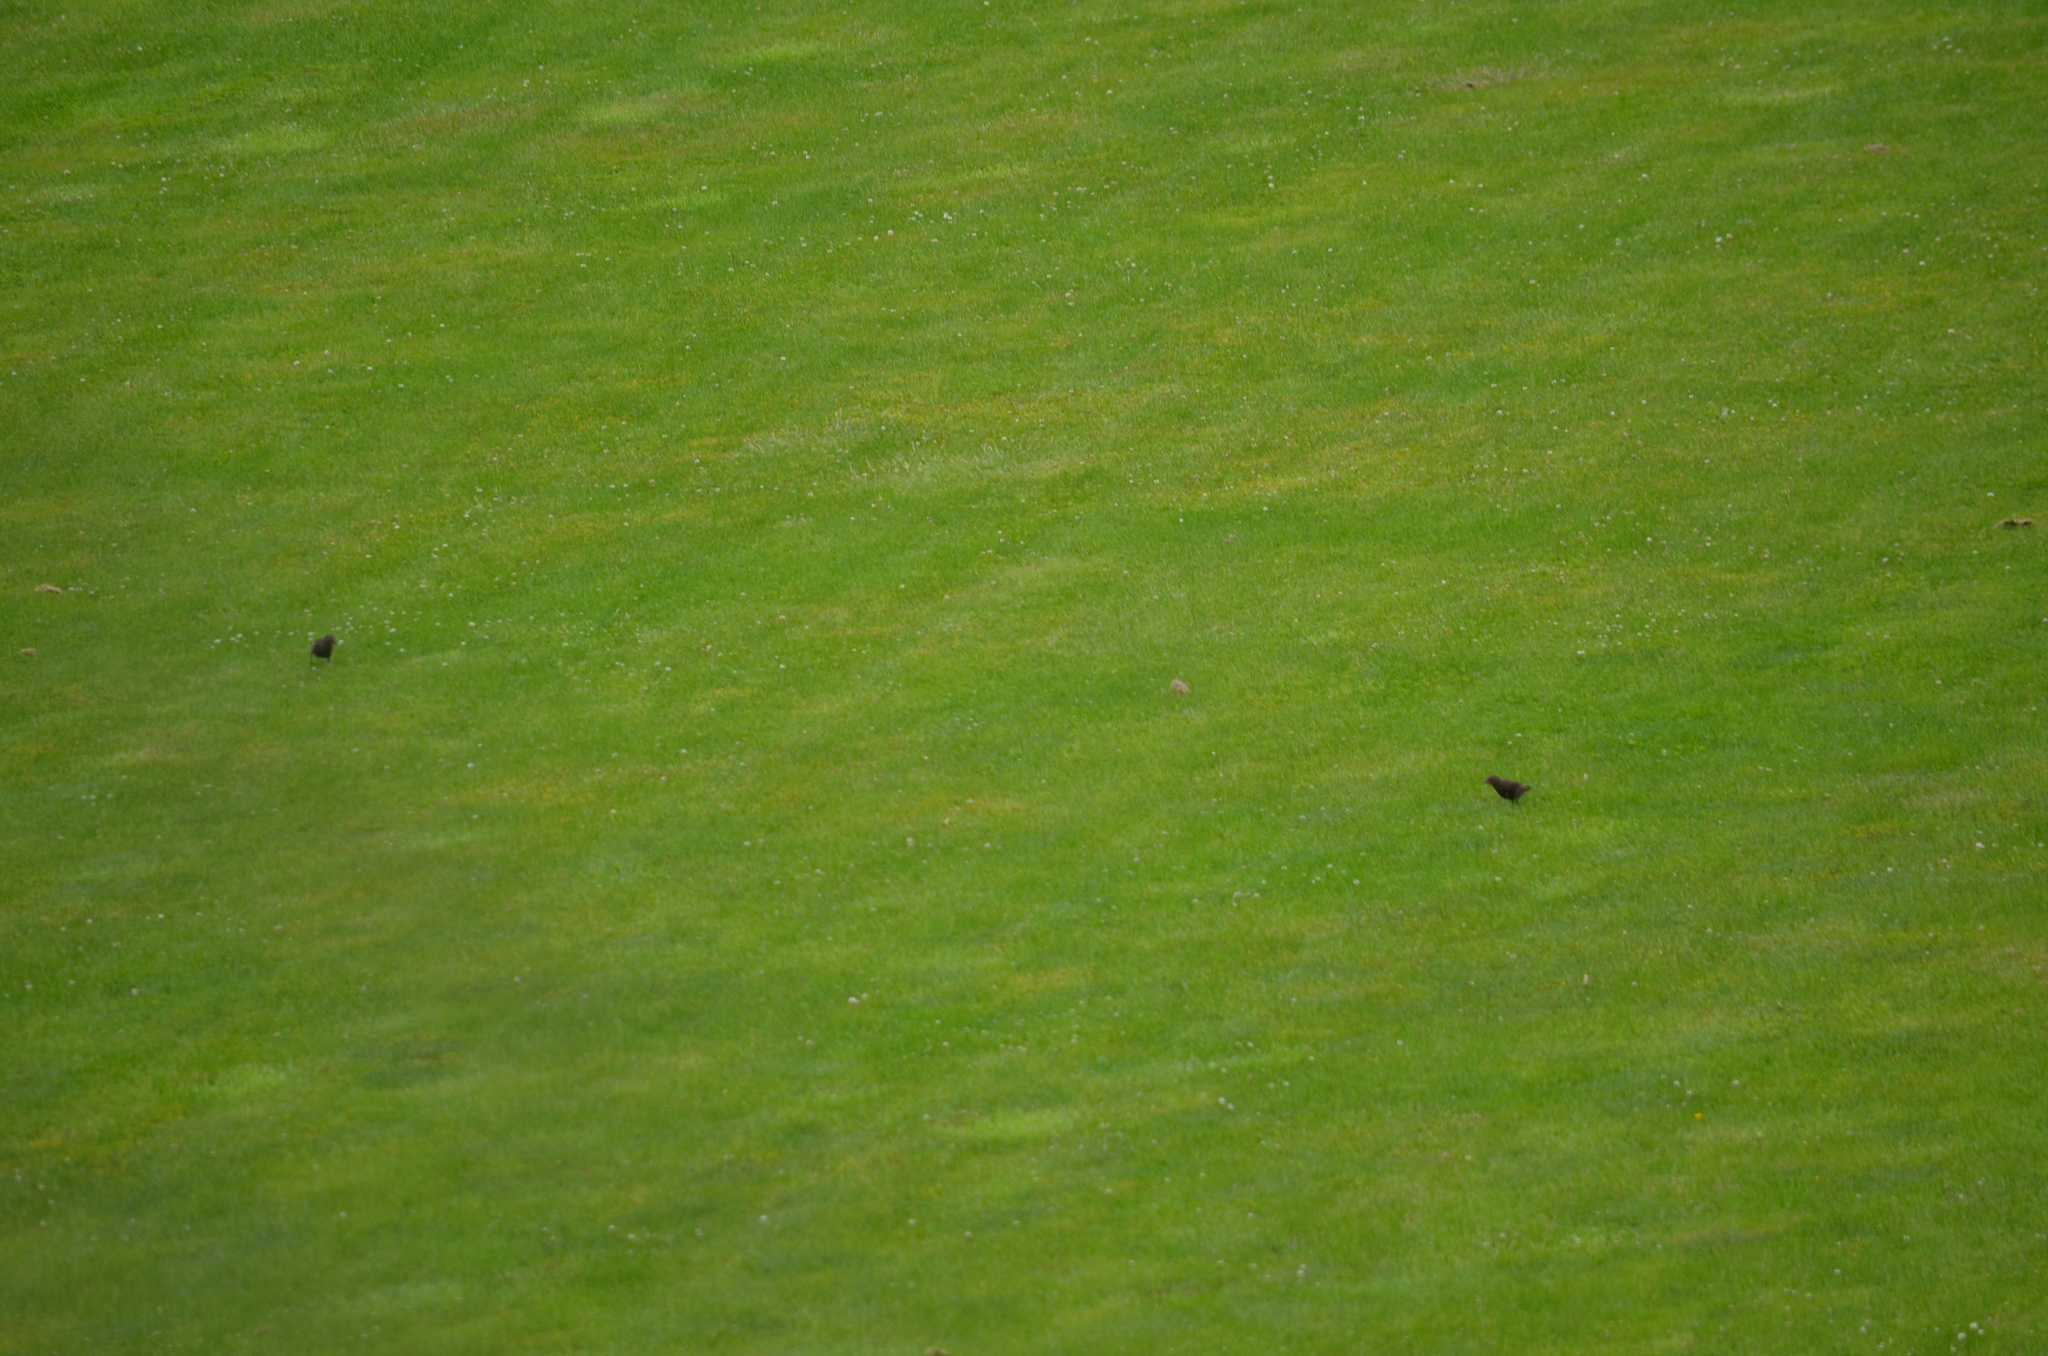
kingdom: Animalia
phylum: Chordata
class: Aves
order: Passeriformes
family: Sturnidae
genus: Sturnus
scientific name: Sturnus vulgaris
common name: Common starling
